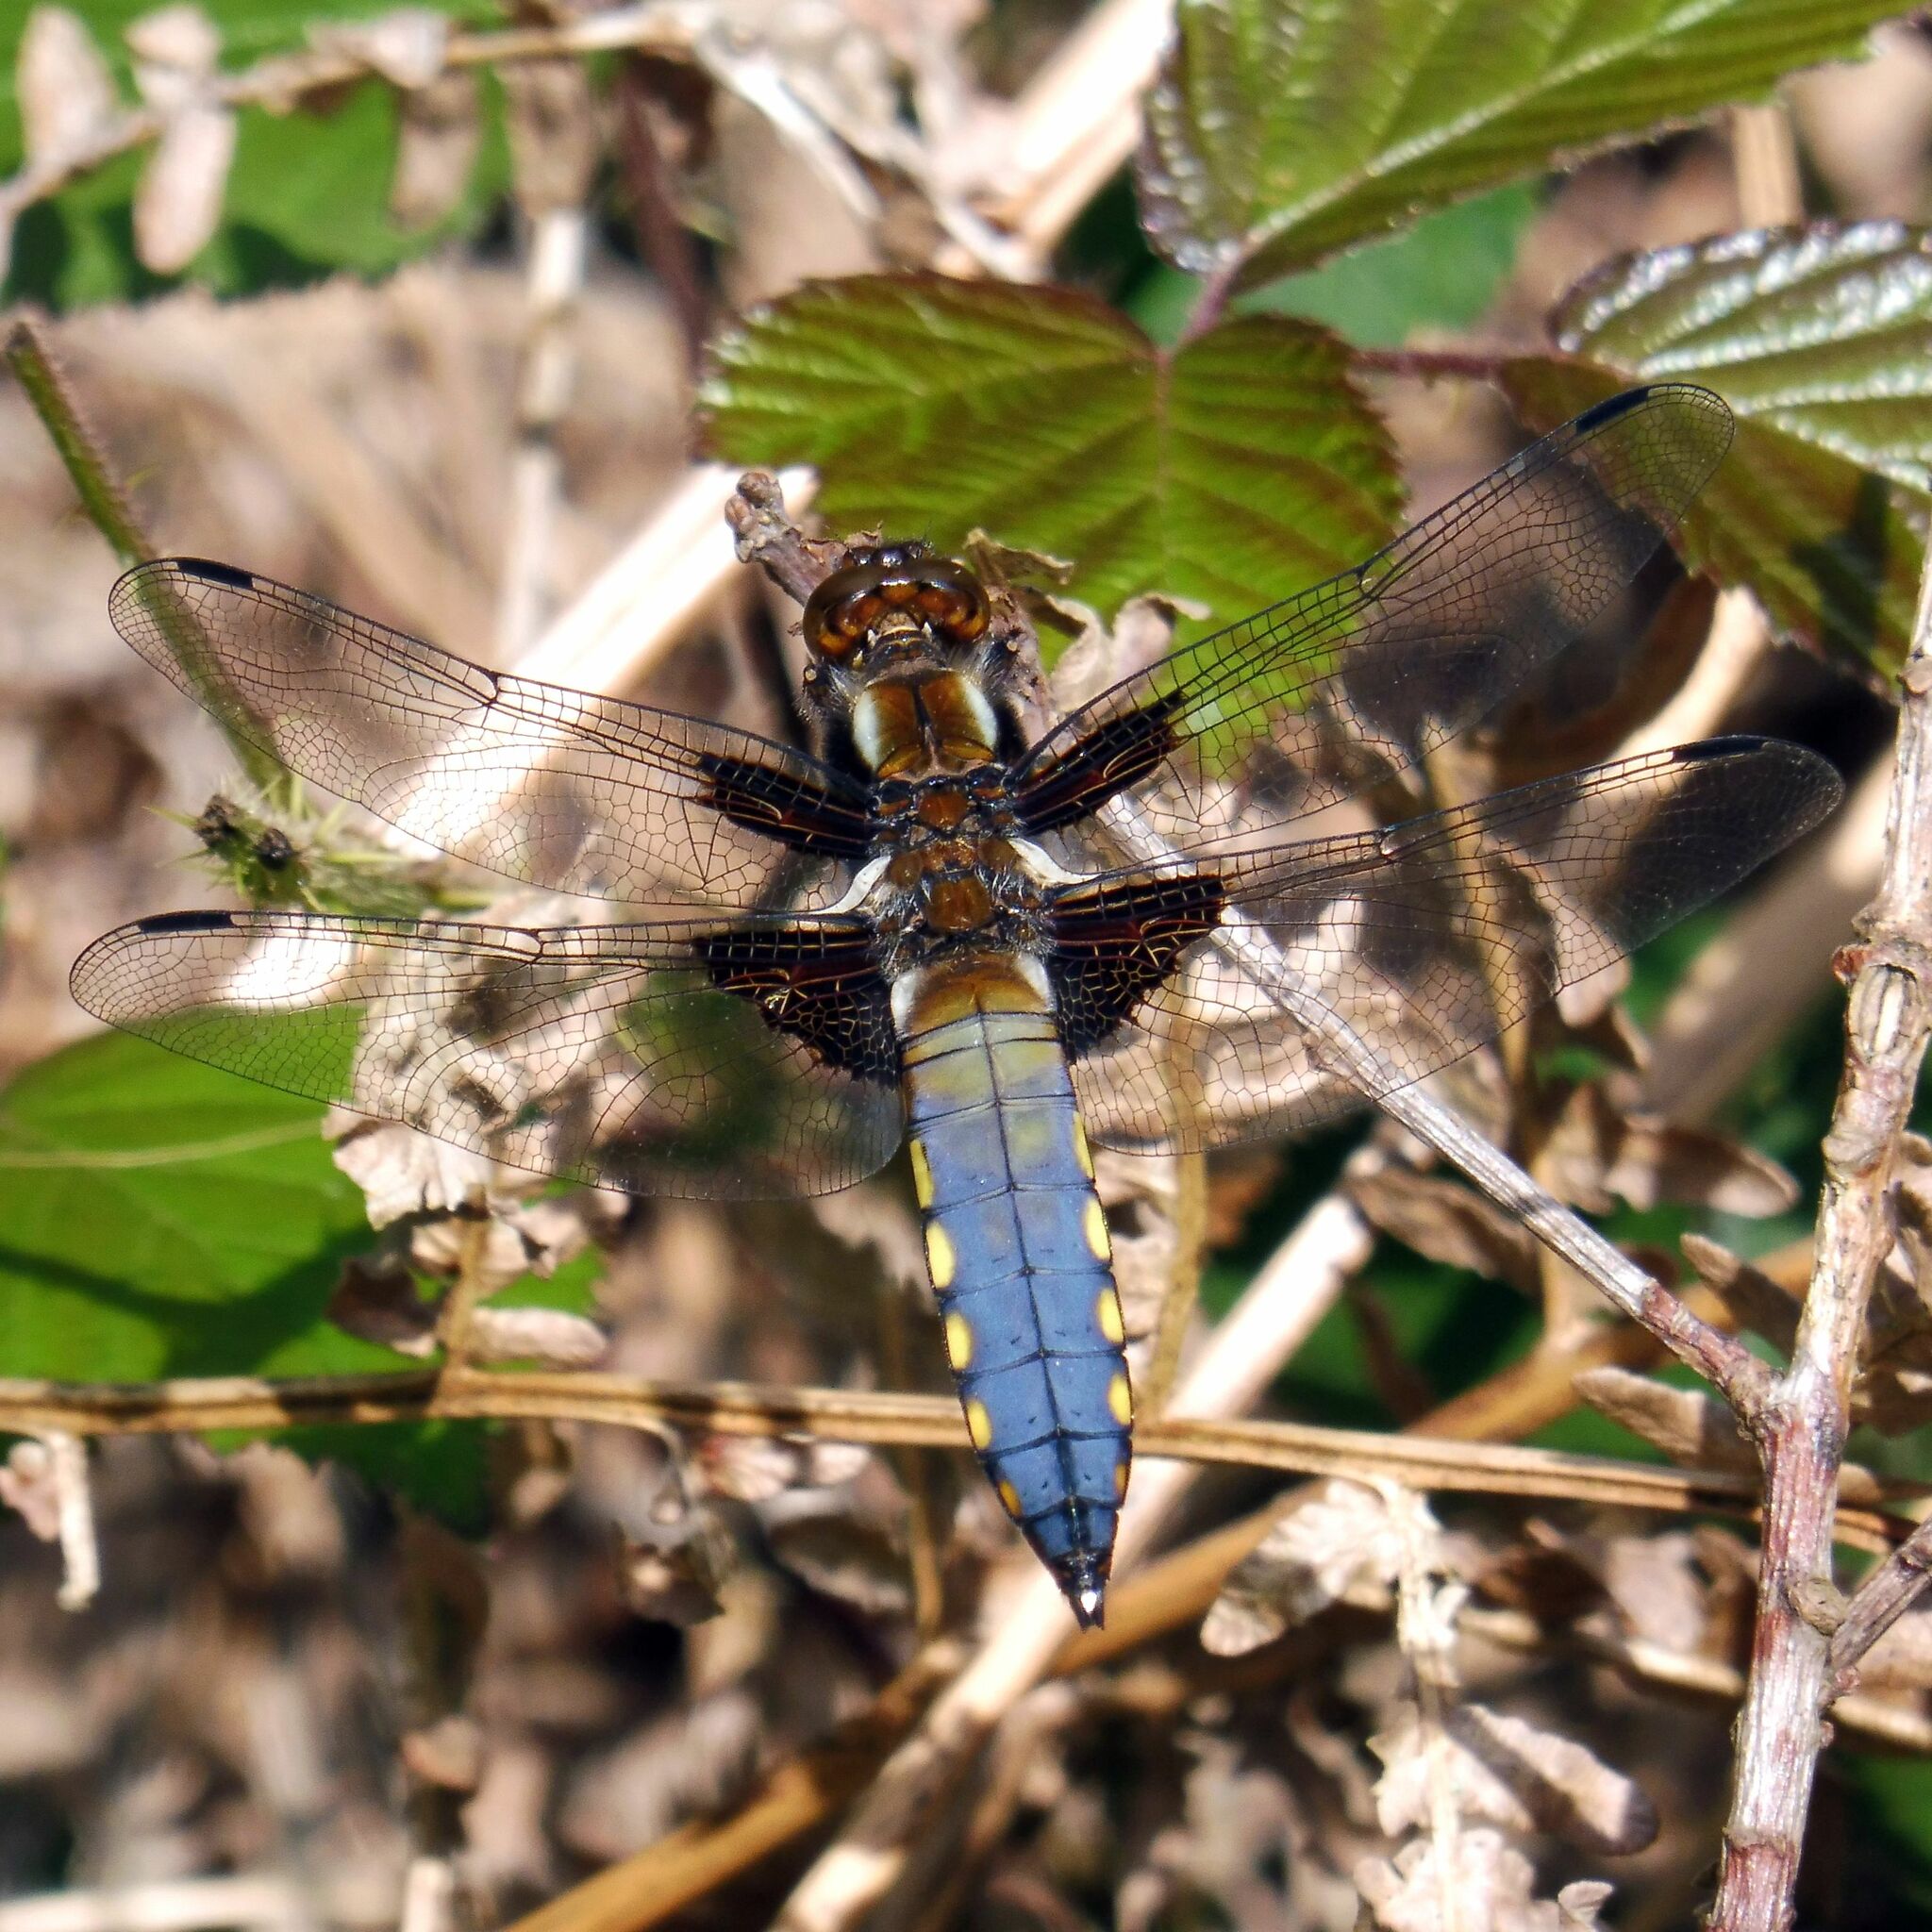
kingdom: Animalia
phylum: Arthropoda
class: Insecta
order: Odonata
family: Libellulidae
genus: Libellula
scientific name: Libellula depressa
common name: Broad-bodied chaser
